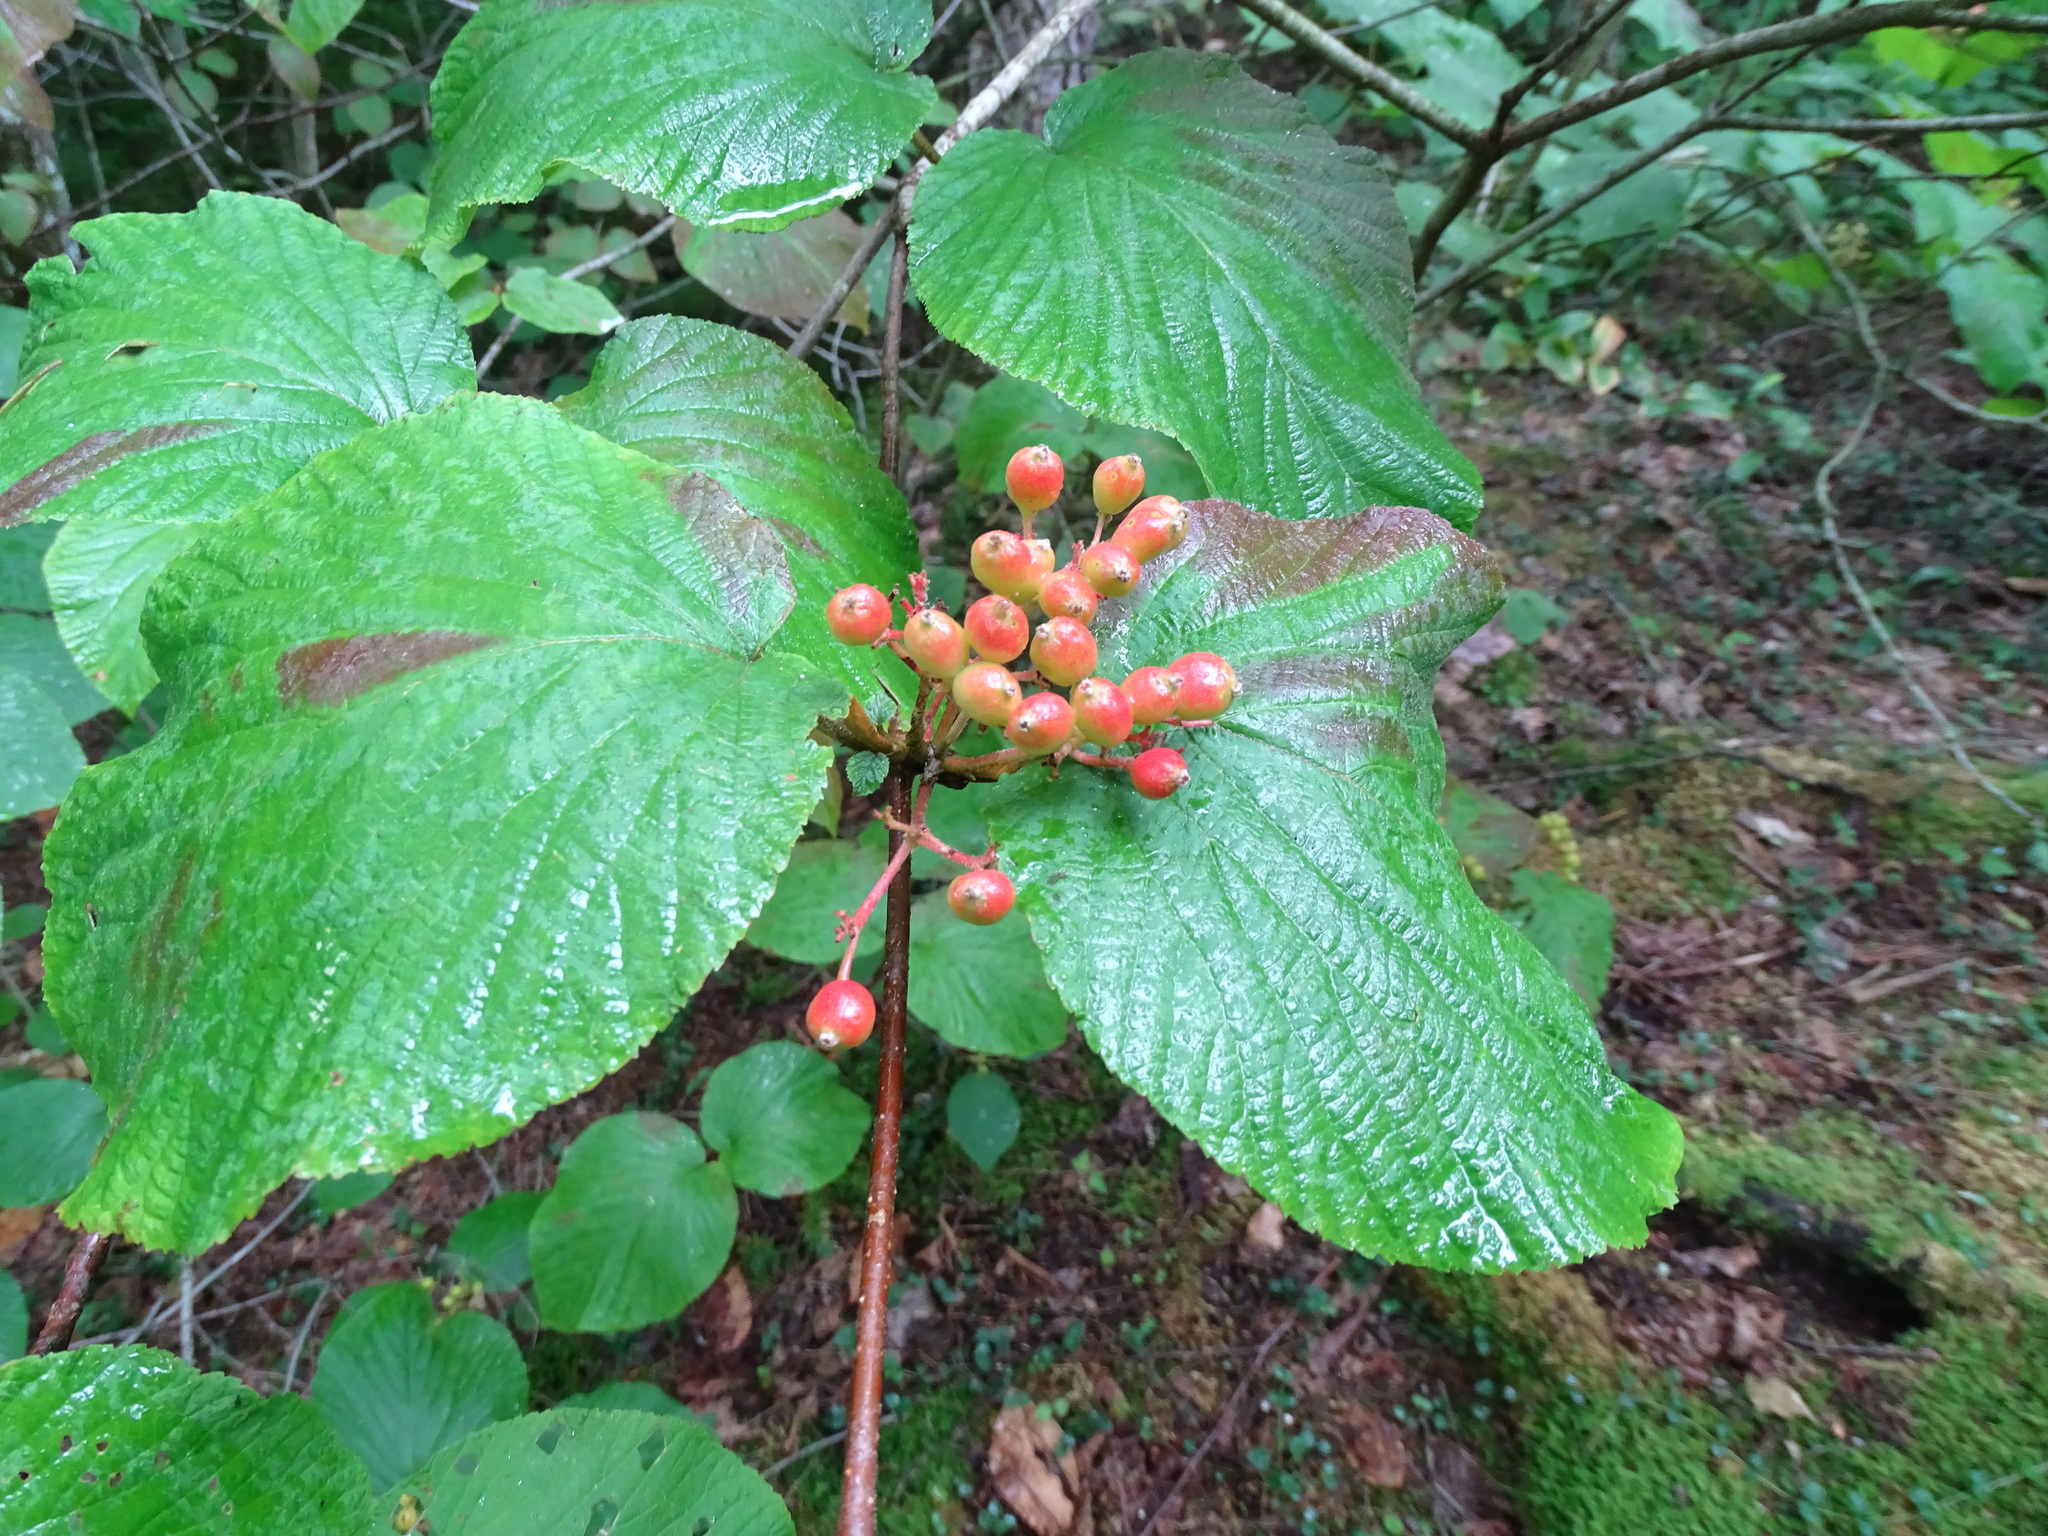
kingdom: Plantae
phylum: Tracheophyta
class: Magnoliopsida
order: Dipsacales
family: Viburnaceae
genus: Viburnum
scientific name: Viburnum lantanoides
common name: Hobblebush
